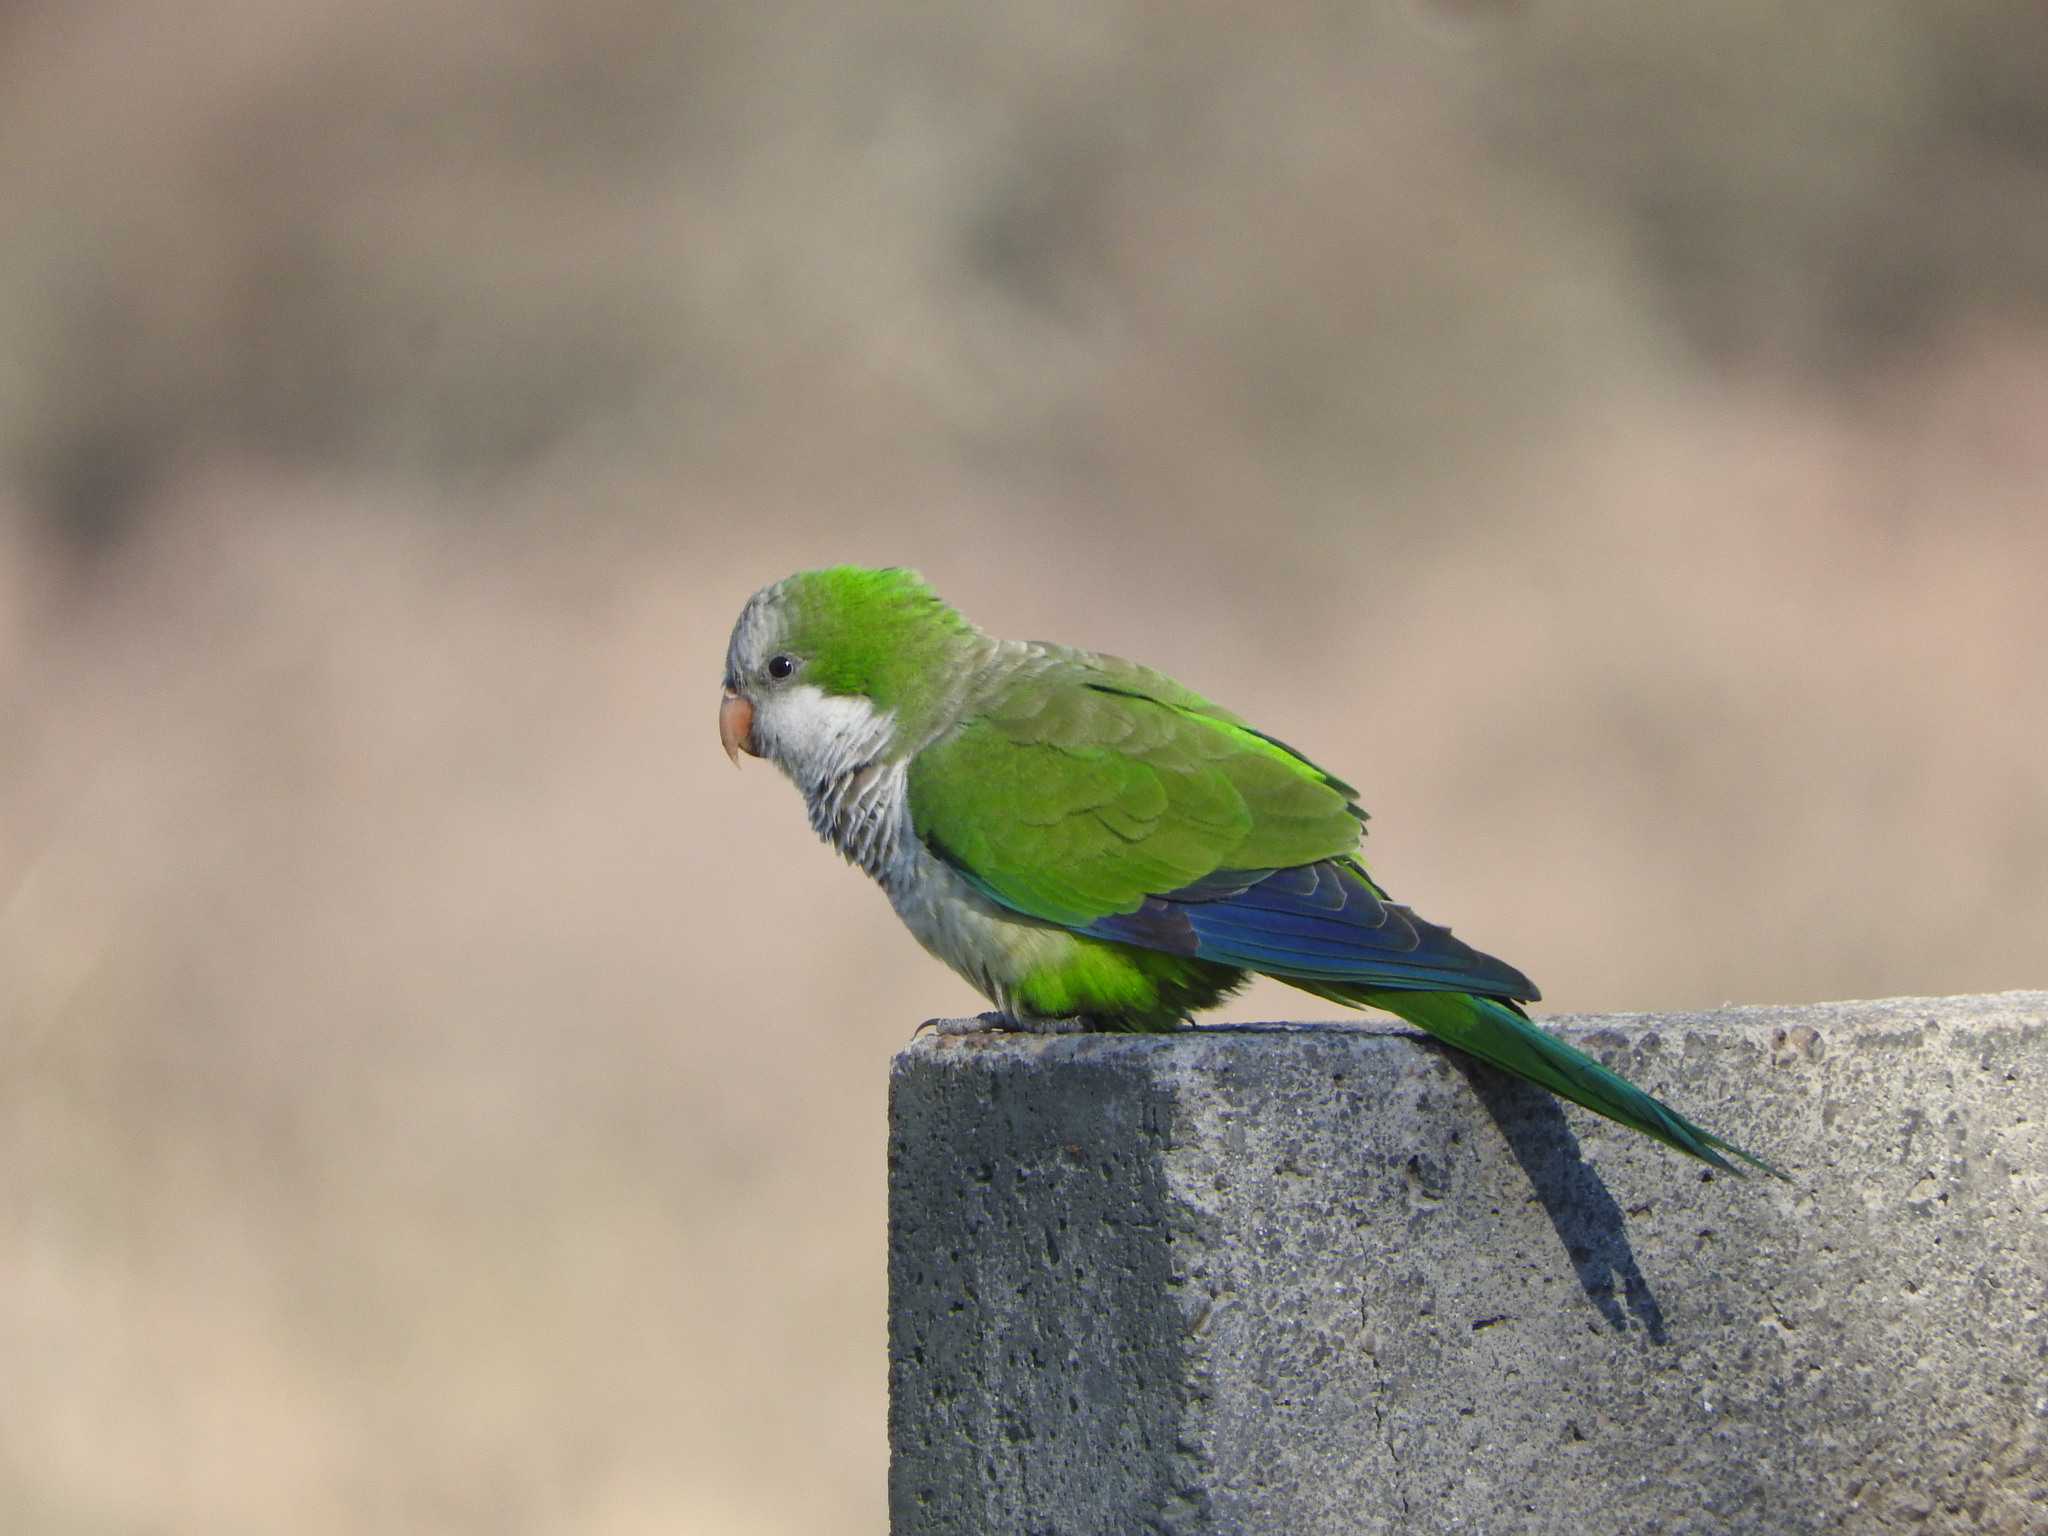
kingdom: Animalia
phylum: Chordata
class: Aves
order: Psittaciformes
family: Psittacidae
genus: Myiopsitta
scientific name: Myiopsitta monachus
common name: Monk parakeet
